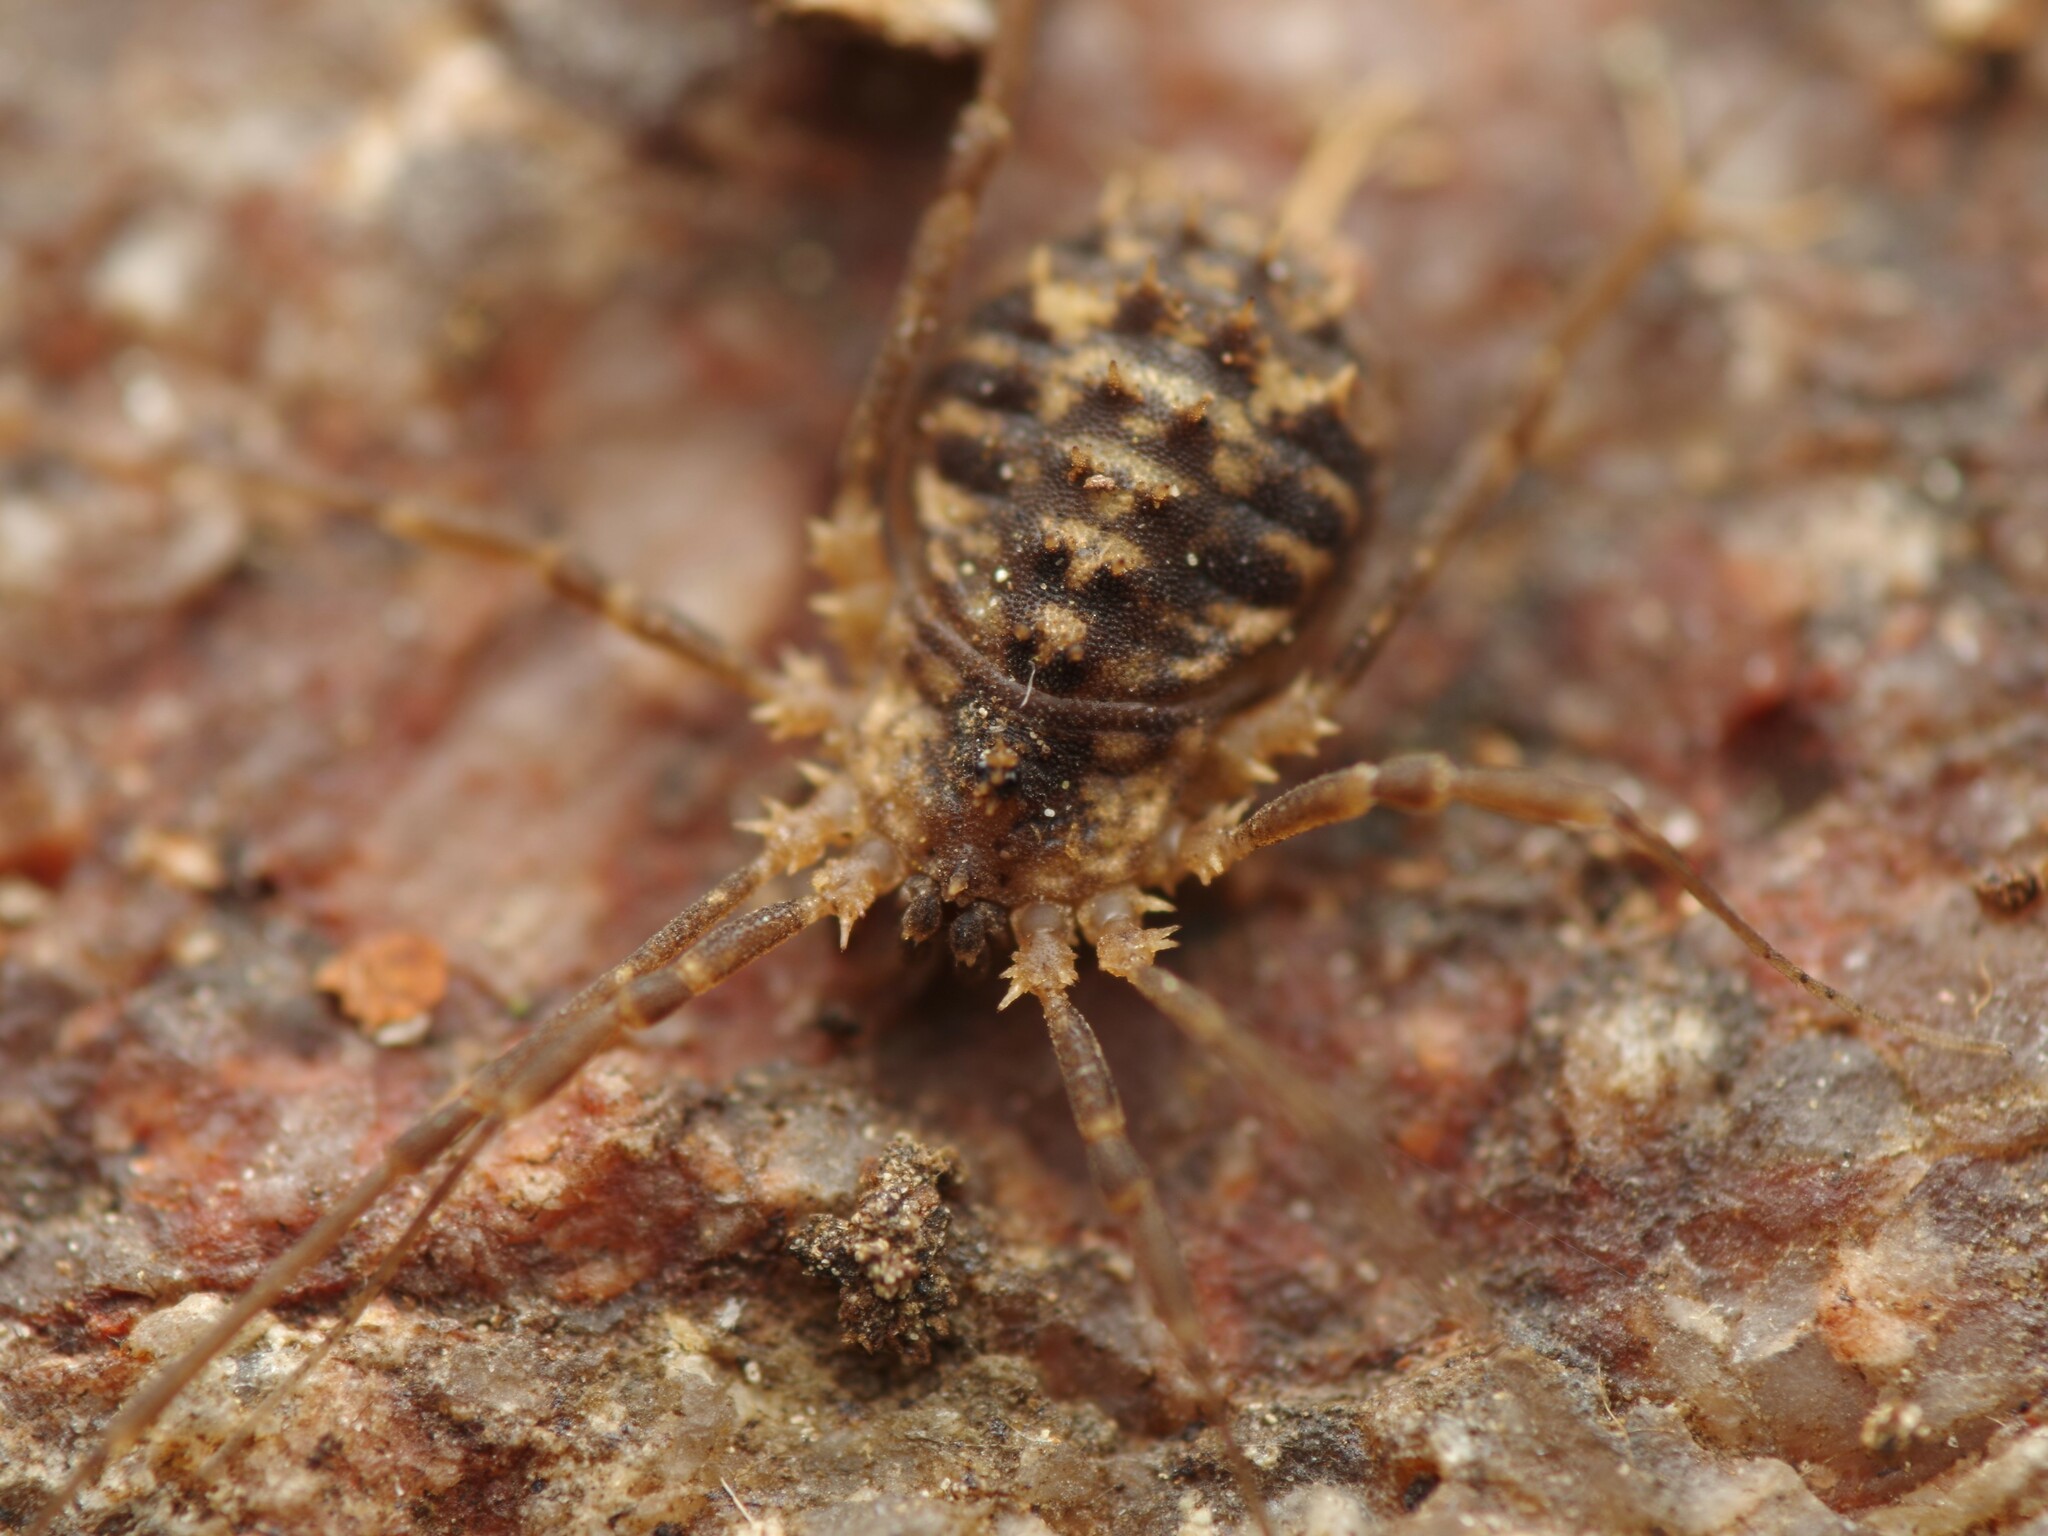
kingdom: Animalia
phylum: Arthropoda
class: Arachnida
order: Opiliones
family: Sclerosomatidae
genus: Homalenotus
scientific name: Homalenotus remyi
